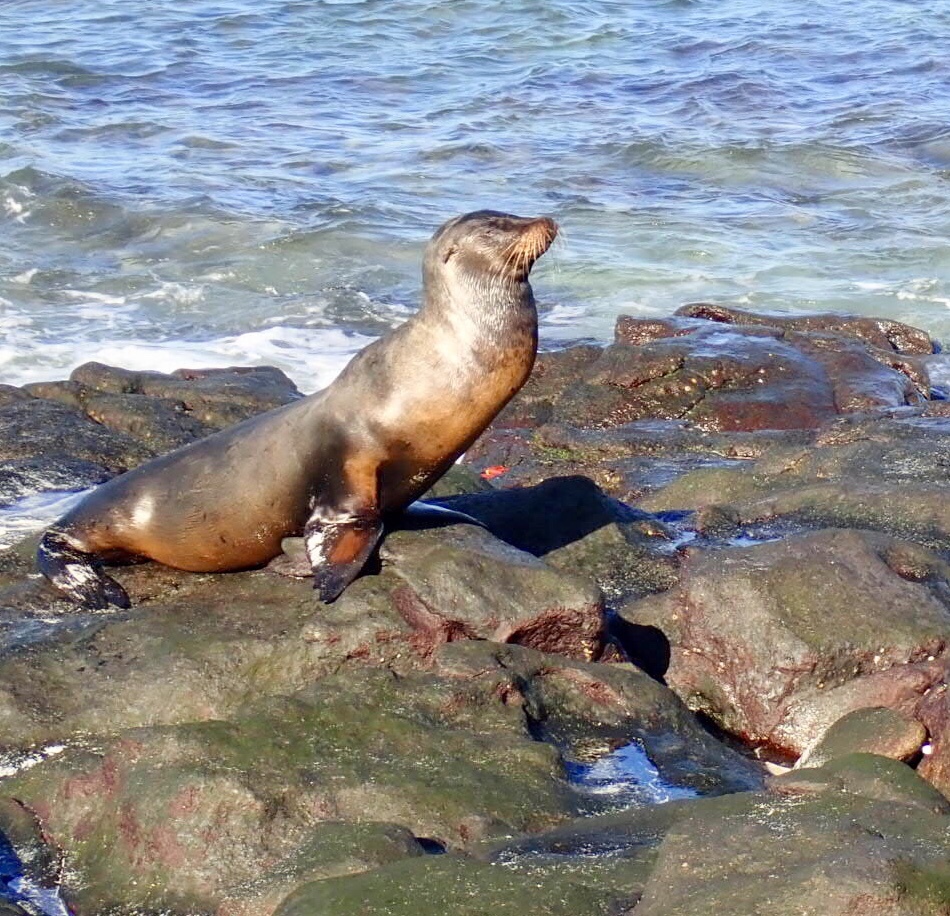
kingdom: Animalia
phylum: Chordata
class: Mammalia
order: Carnivora
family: Otariidae
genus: Zalophus
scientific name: Zalophus wollebaeki
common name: Galapagos sea lion
